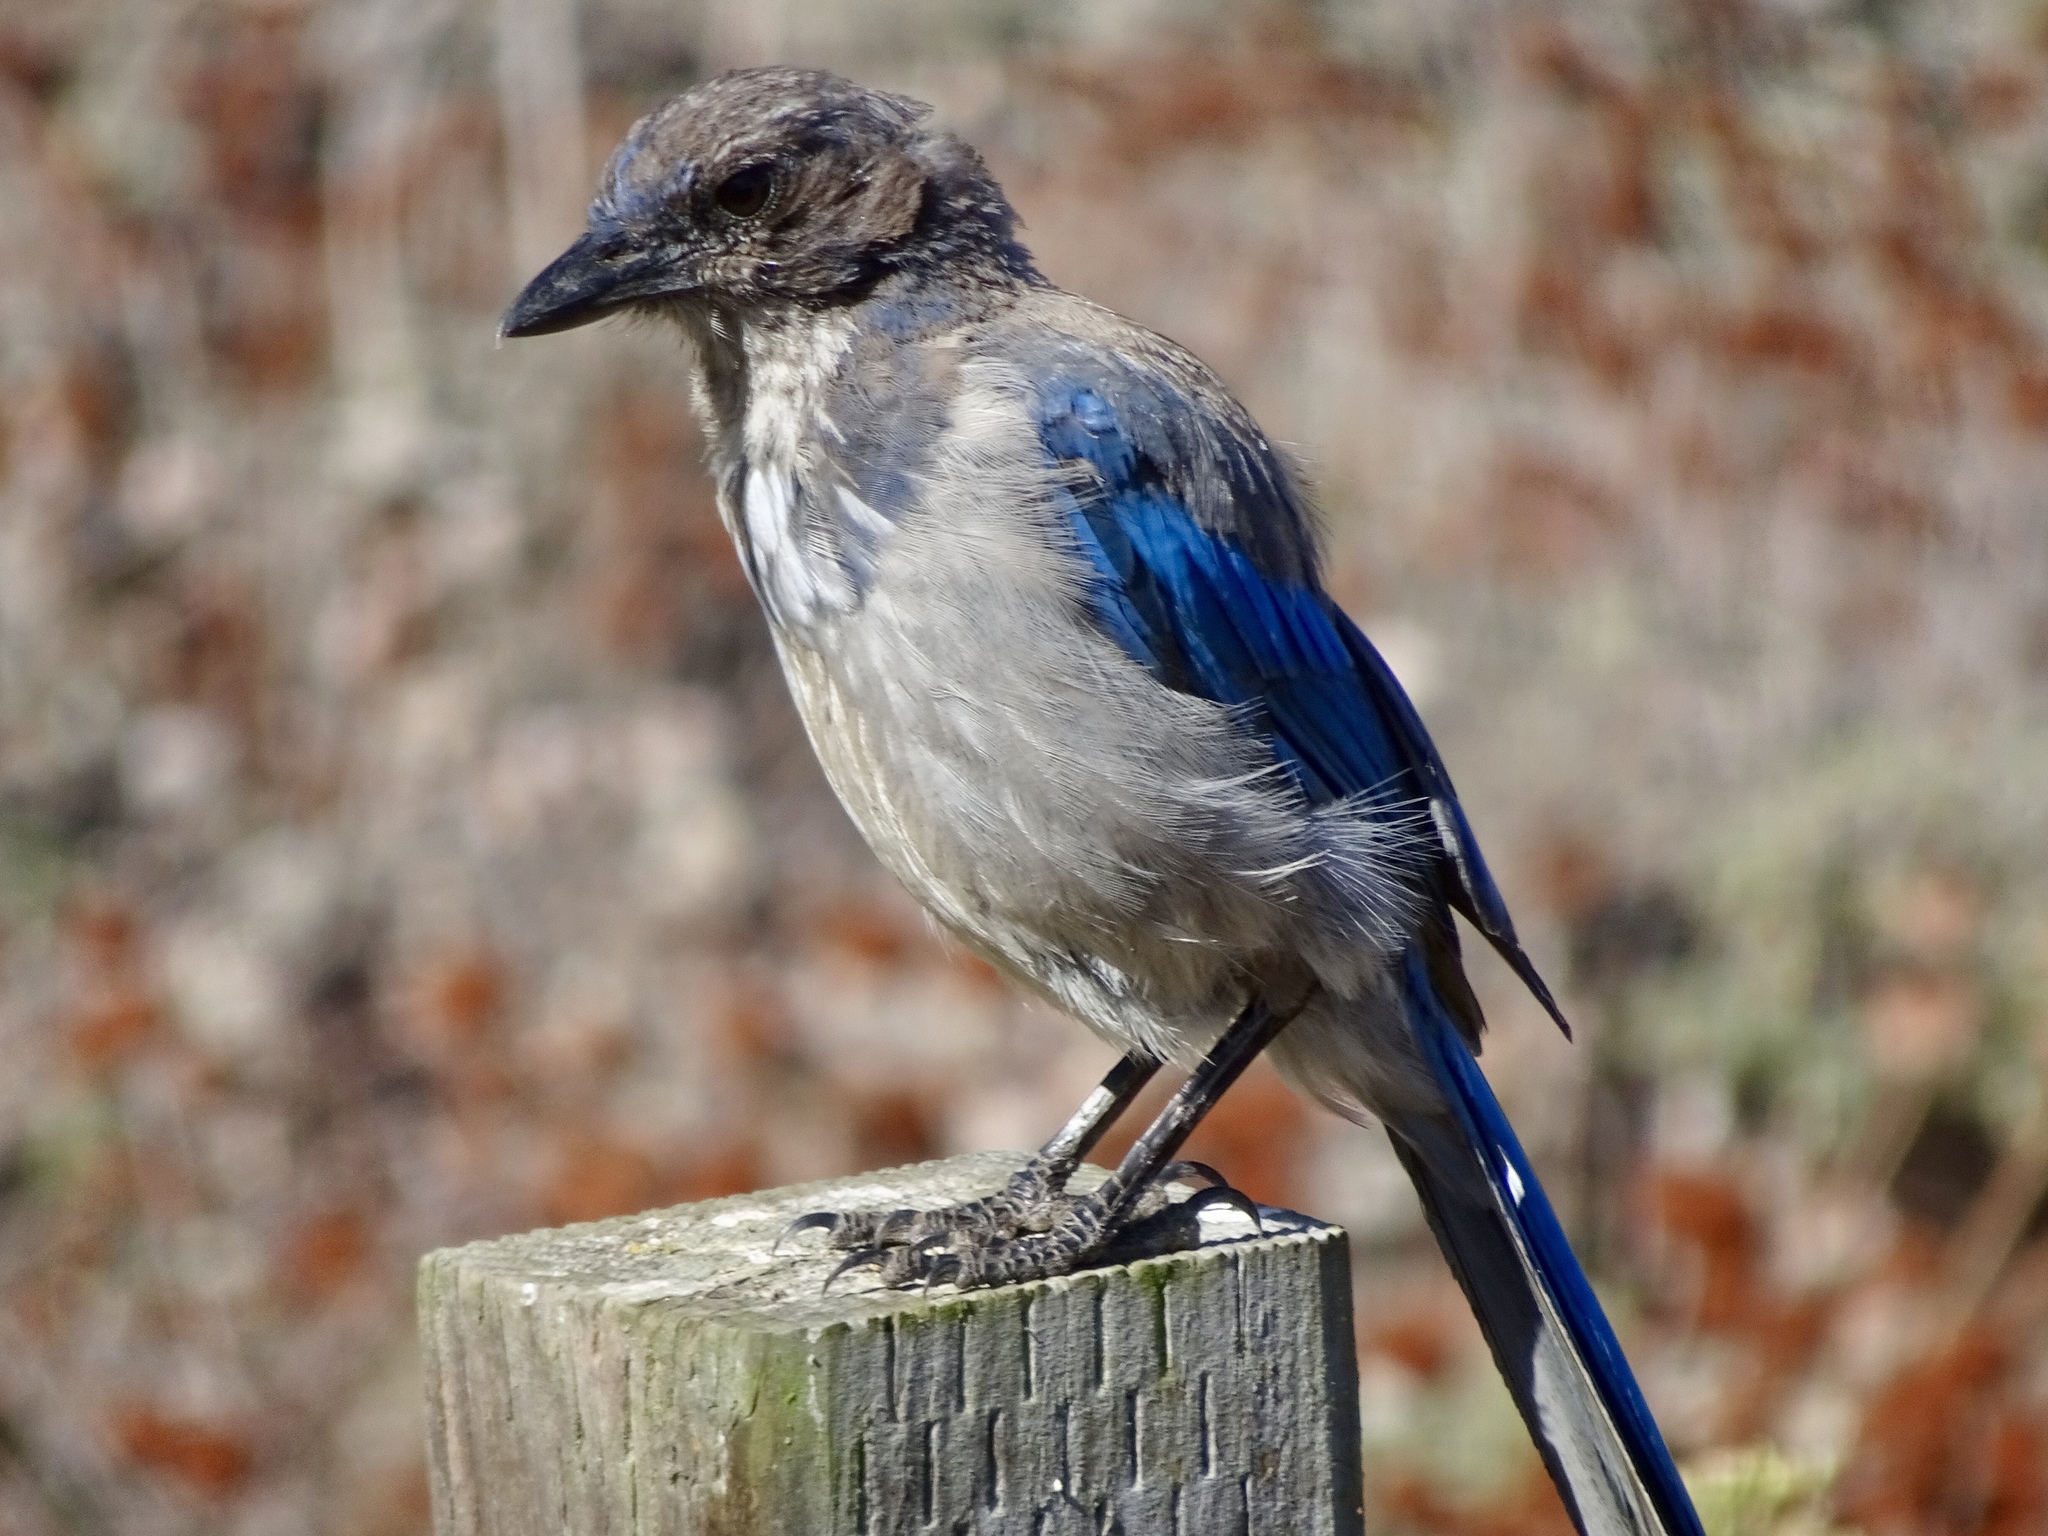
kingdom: Animalia
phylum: Chordata
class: Aves
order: Passeriformes
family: Corvidae
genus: Aphelocoma
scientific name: Aphelocoma californica
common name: California scrub-jay
